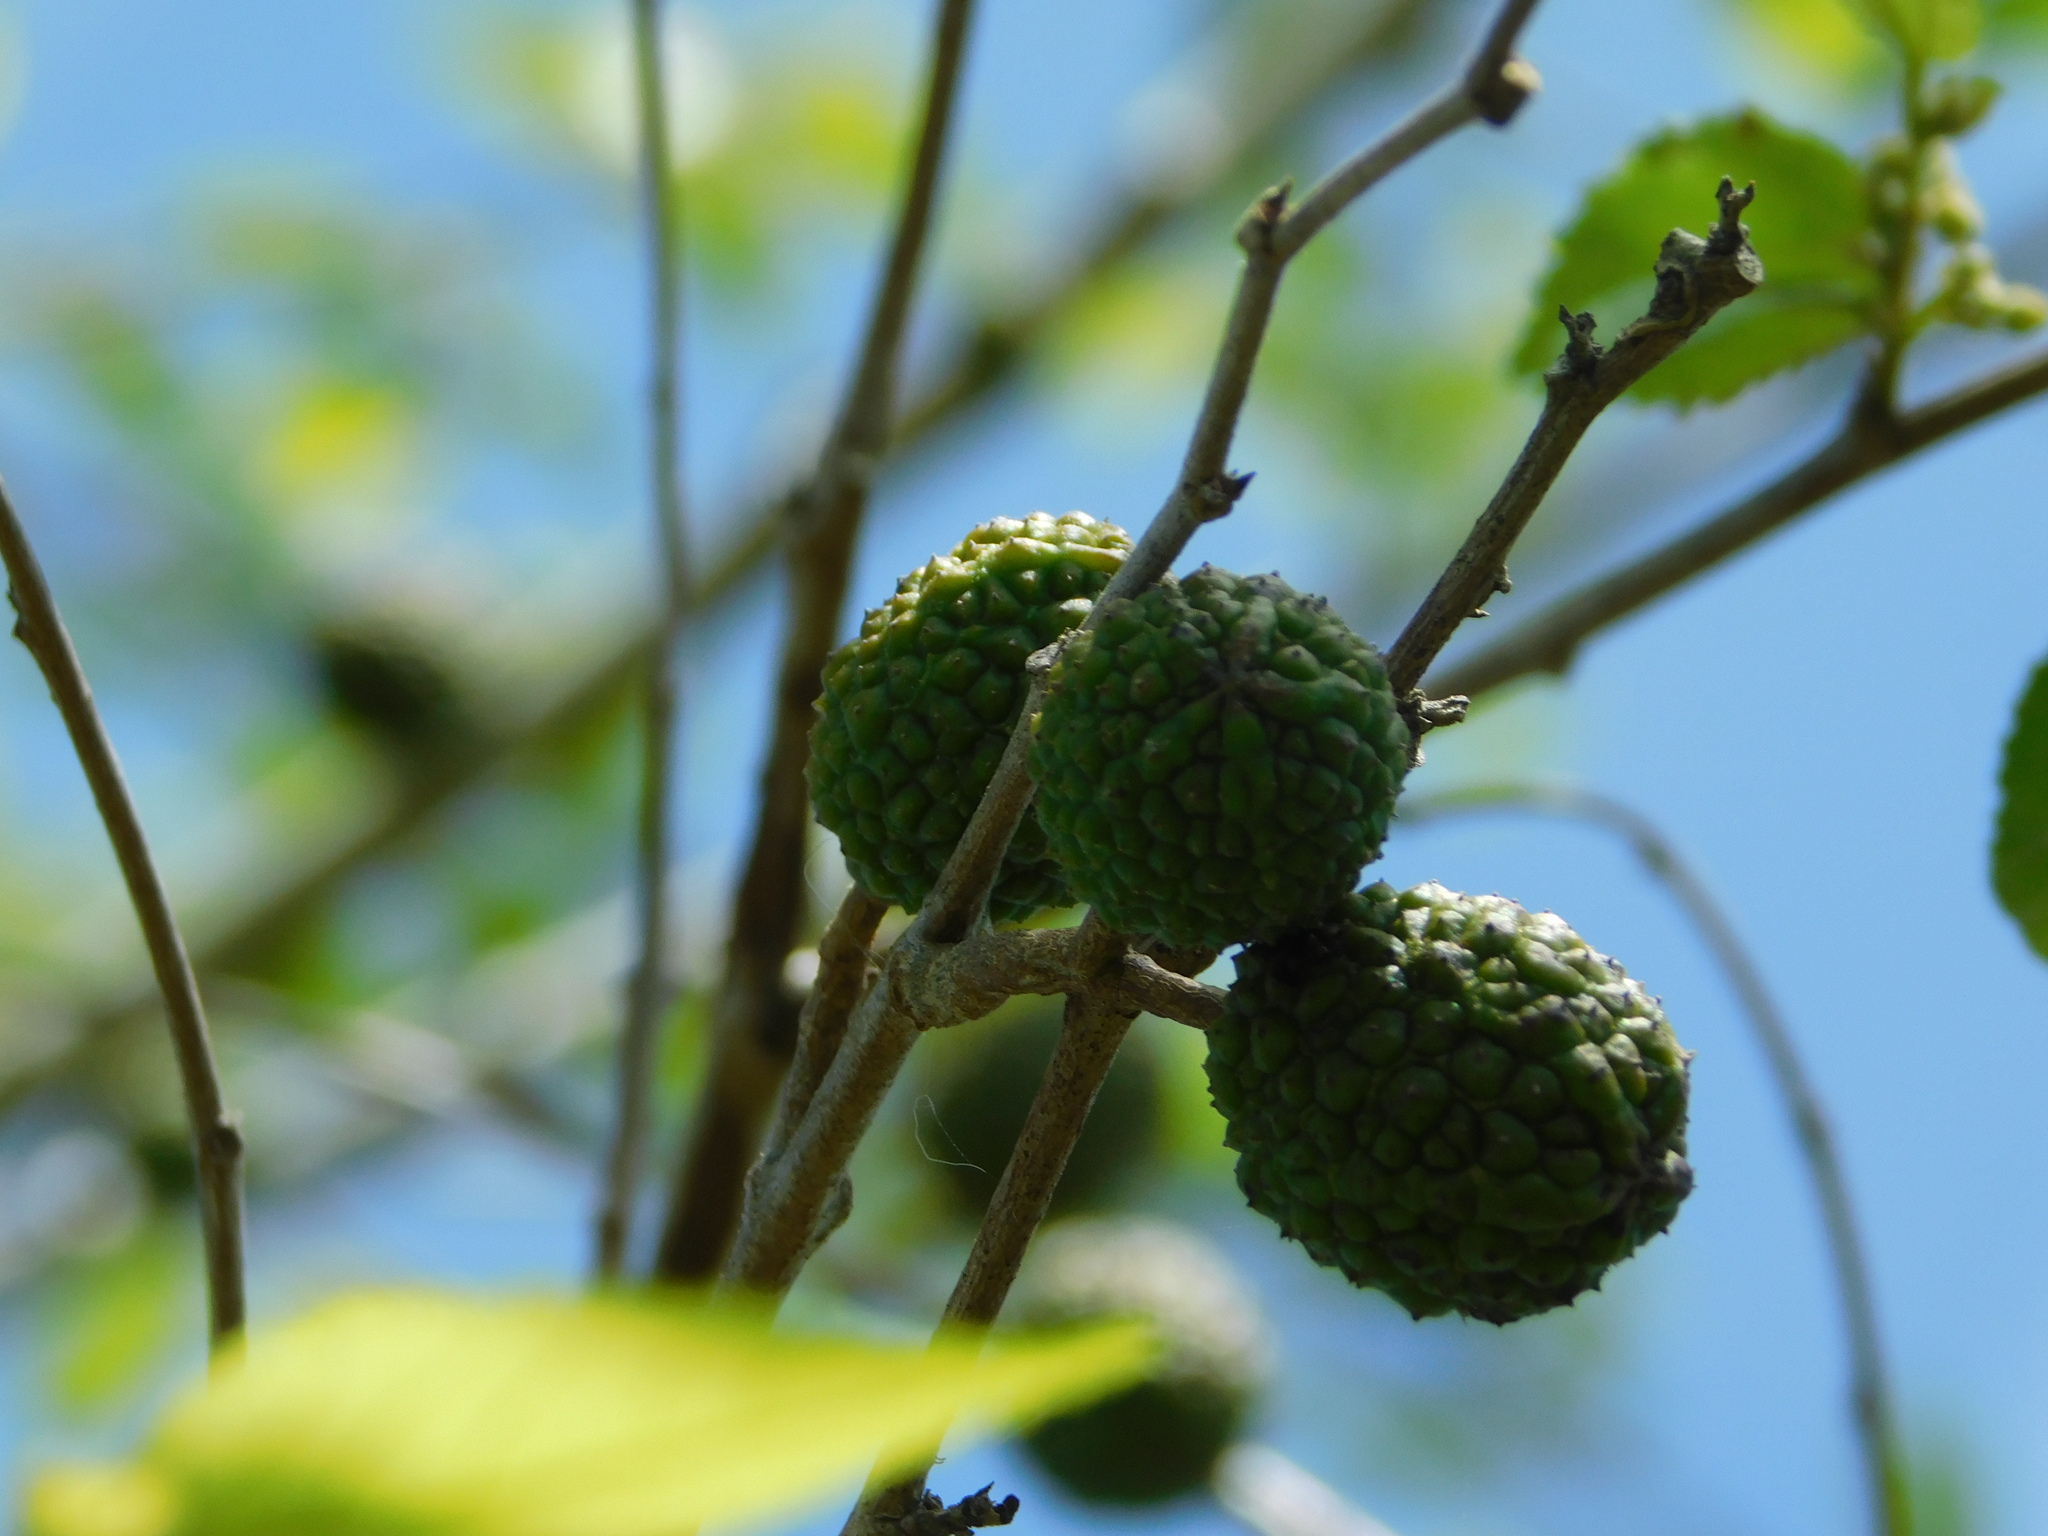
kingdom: Plantae
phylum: Tracheophyta
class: Magnoliopsida
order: Malvales
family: Malvaceae
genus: Guazuma
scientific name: Guazuma ulmifolia
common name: Bastard-cedar
